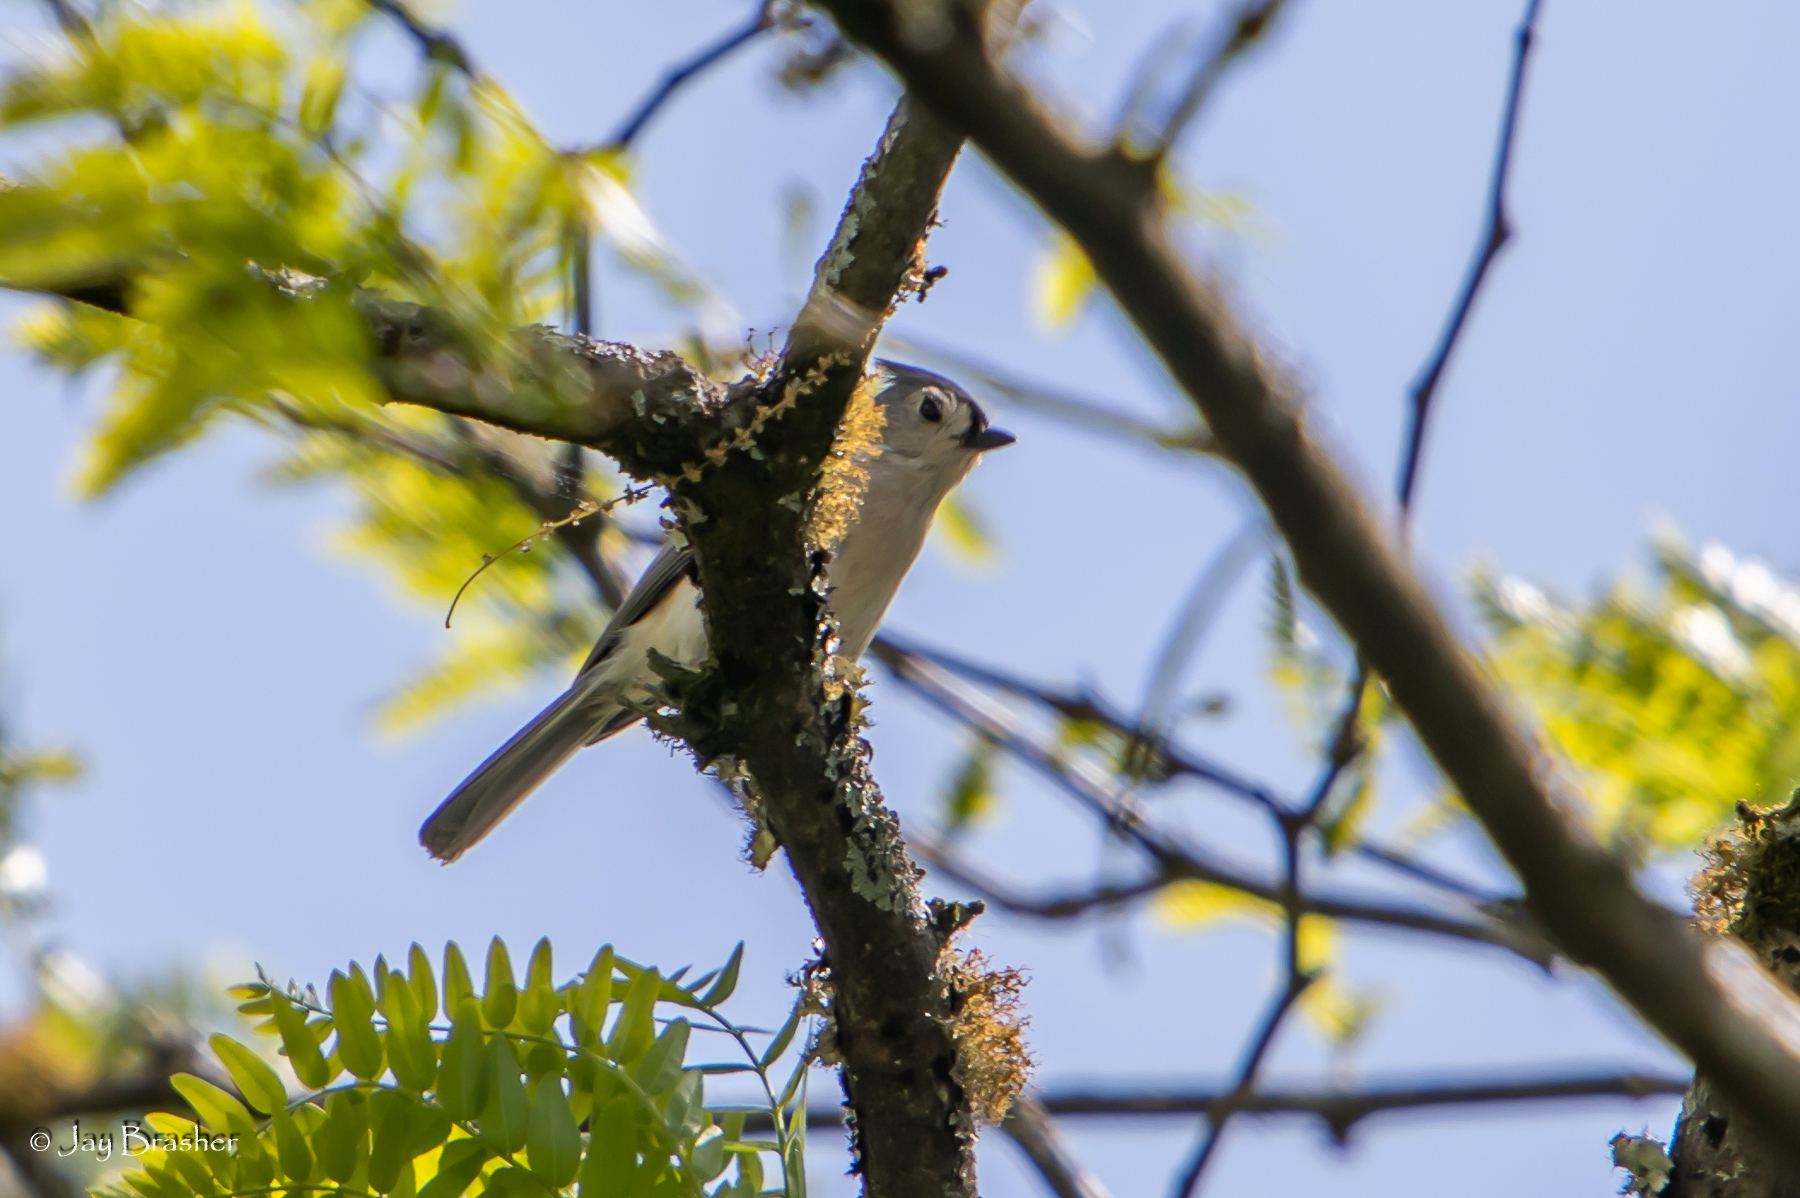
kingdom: Animalia
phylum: Chordata
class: Aves
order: Passeriformes
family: Paridae
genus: Baeolophus
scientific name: Baeolophus bicolor
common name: Tufted titmouse
